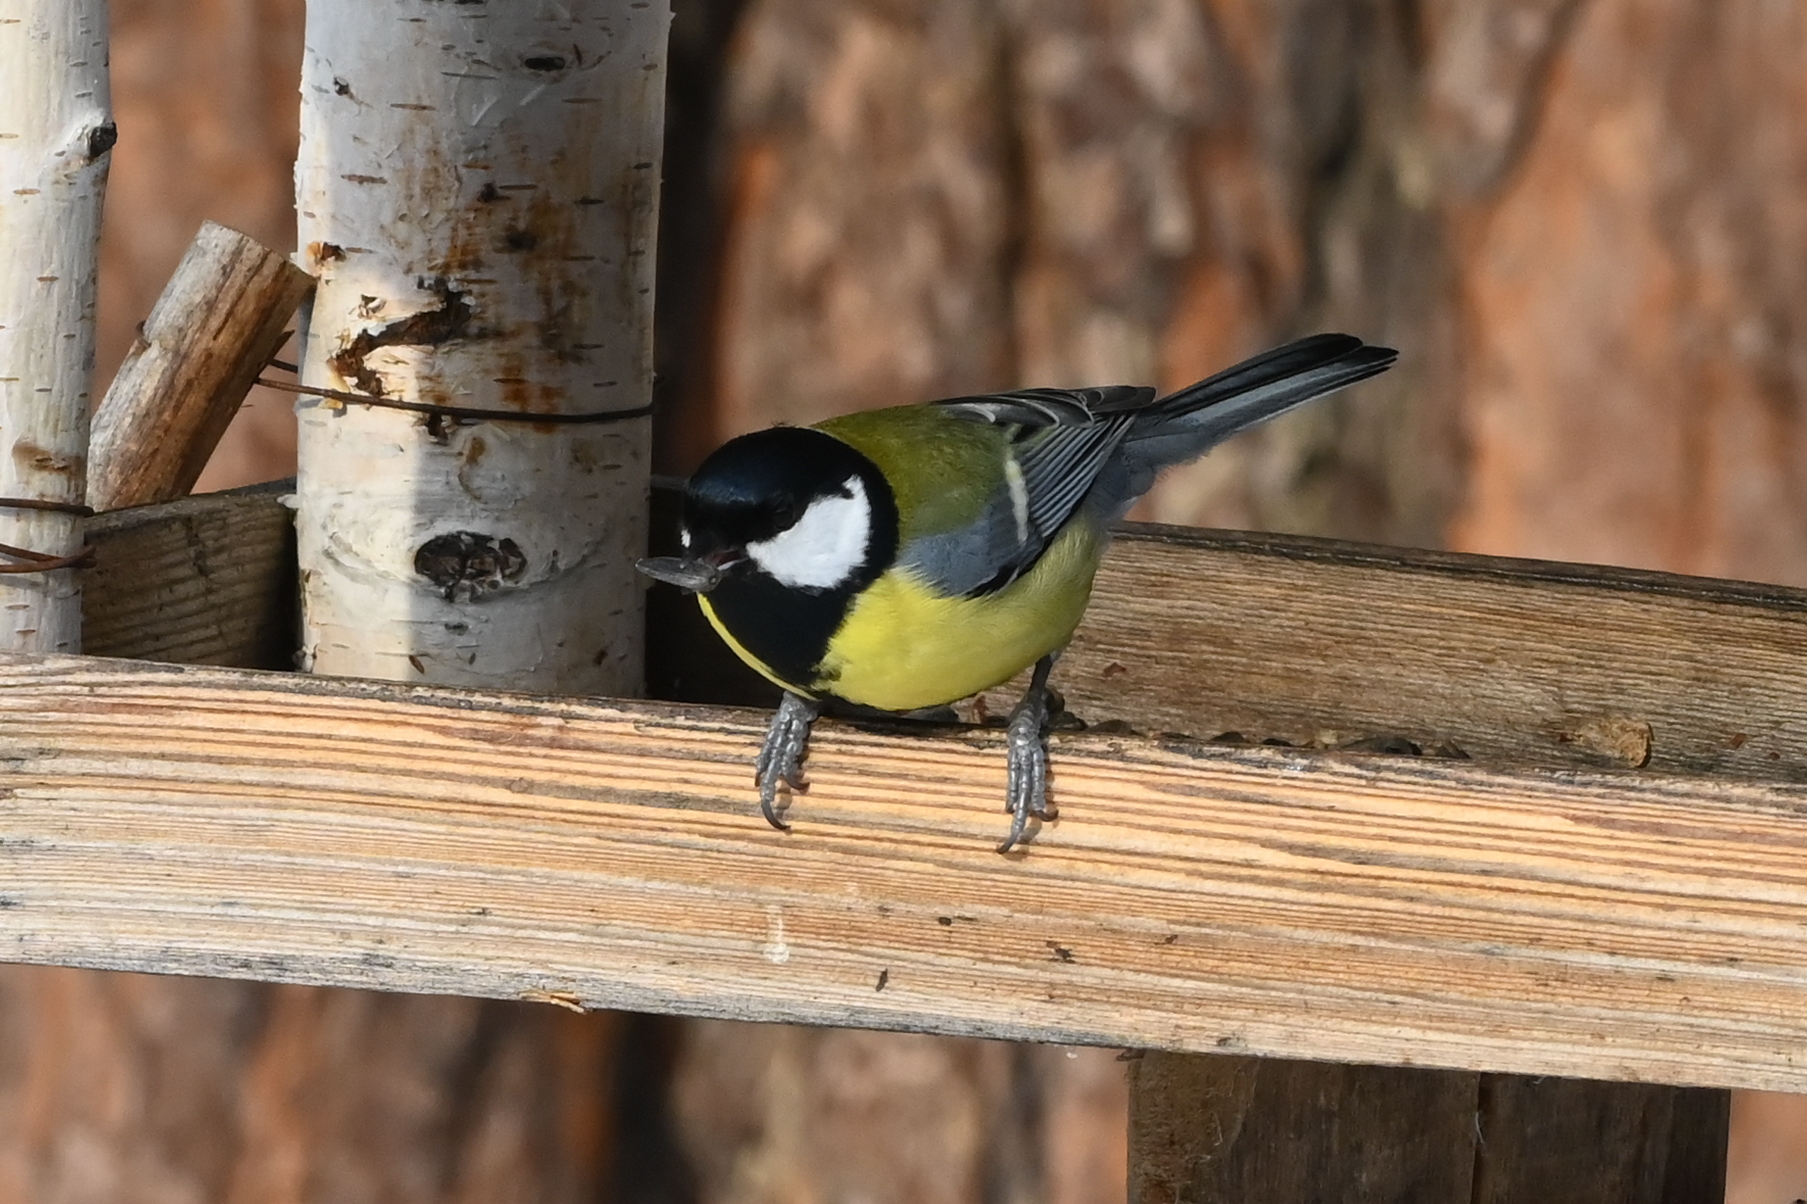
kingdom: Animalia
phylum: Chordata
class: Aves
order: Passeriformes
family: Paridae
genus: Parus
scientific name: Parus major
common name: Great tit
